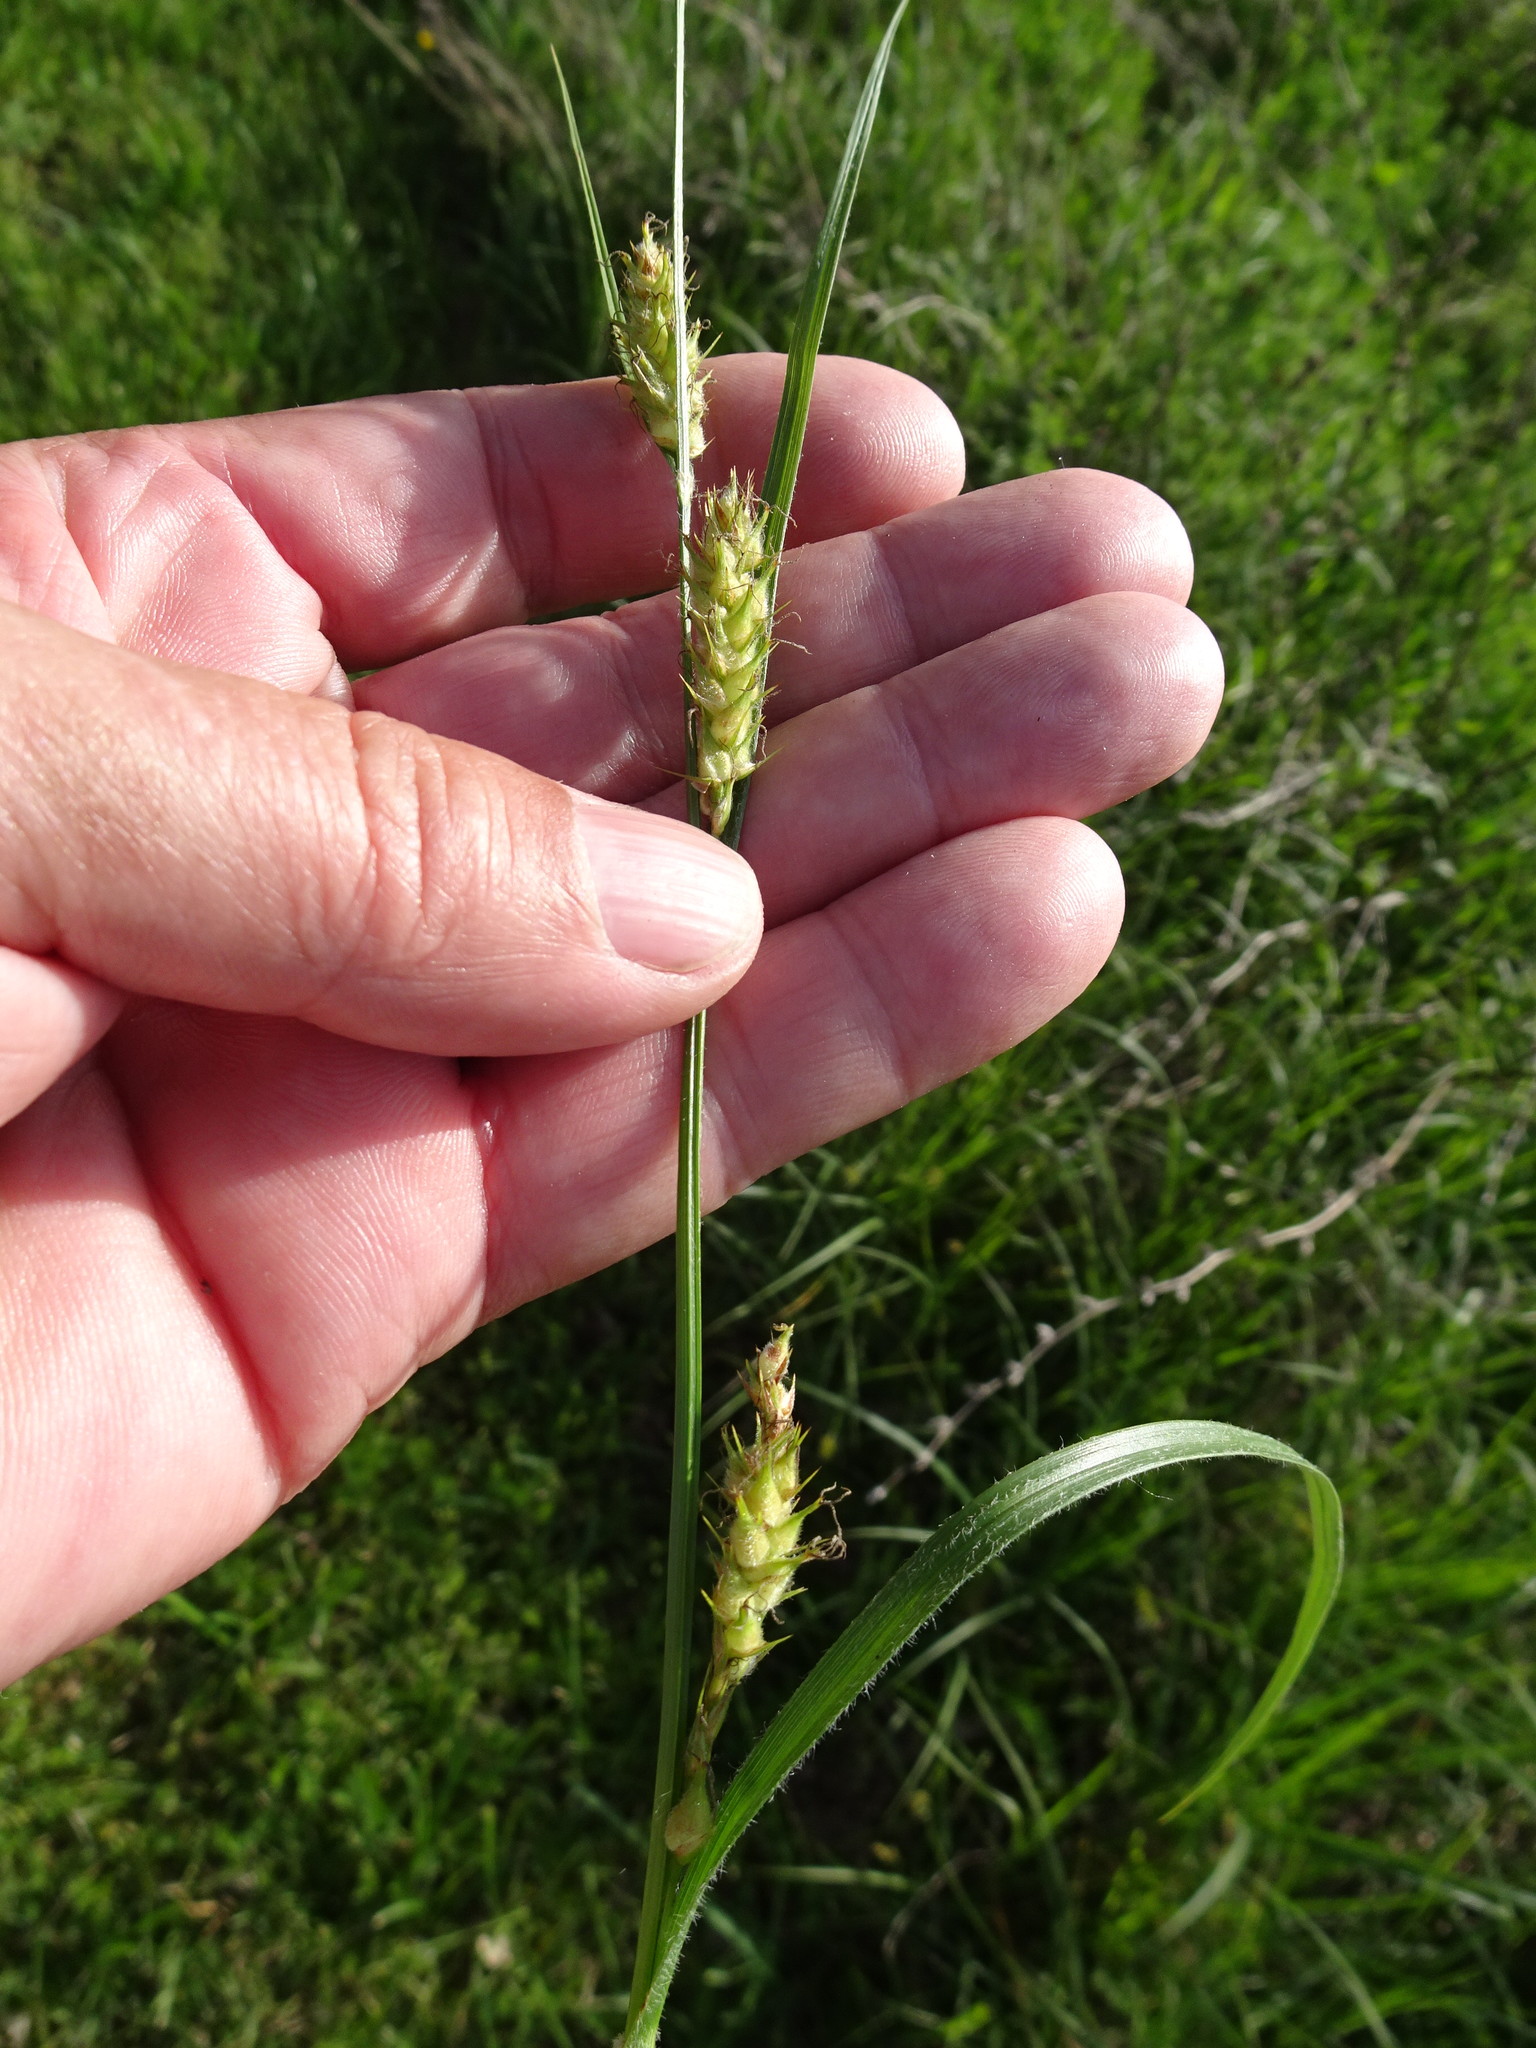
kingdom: Plantae
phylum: Tracheophyta
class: Liliopsida
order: Poales
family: Cyperaceae
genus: Carex
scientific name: Carex hirta
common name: Hairy sedge
